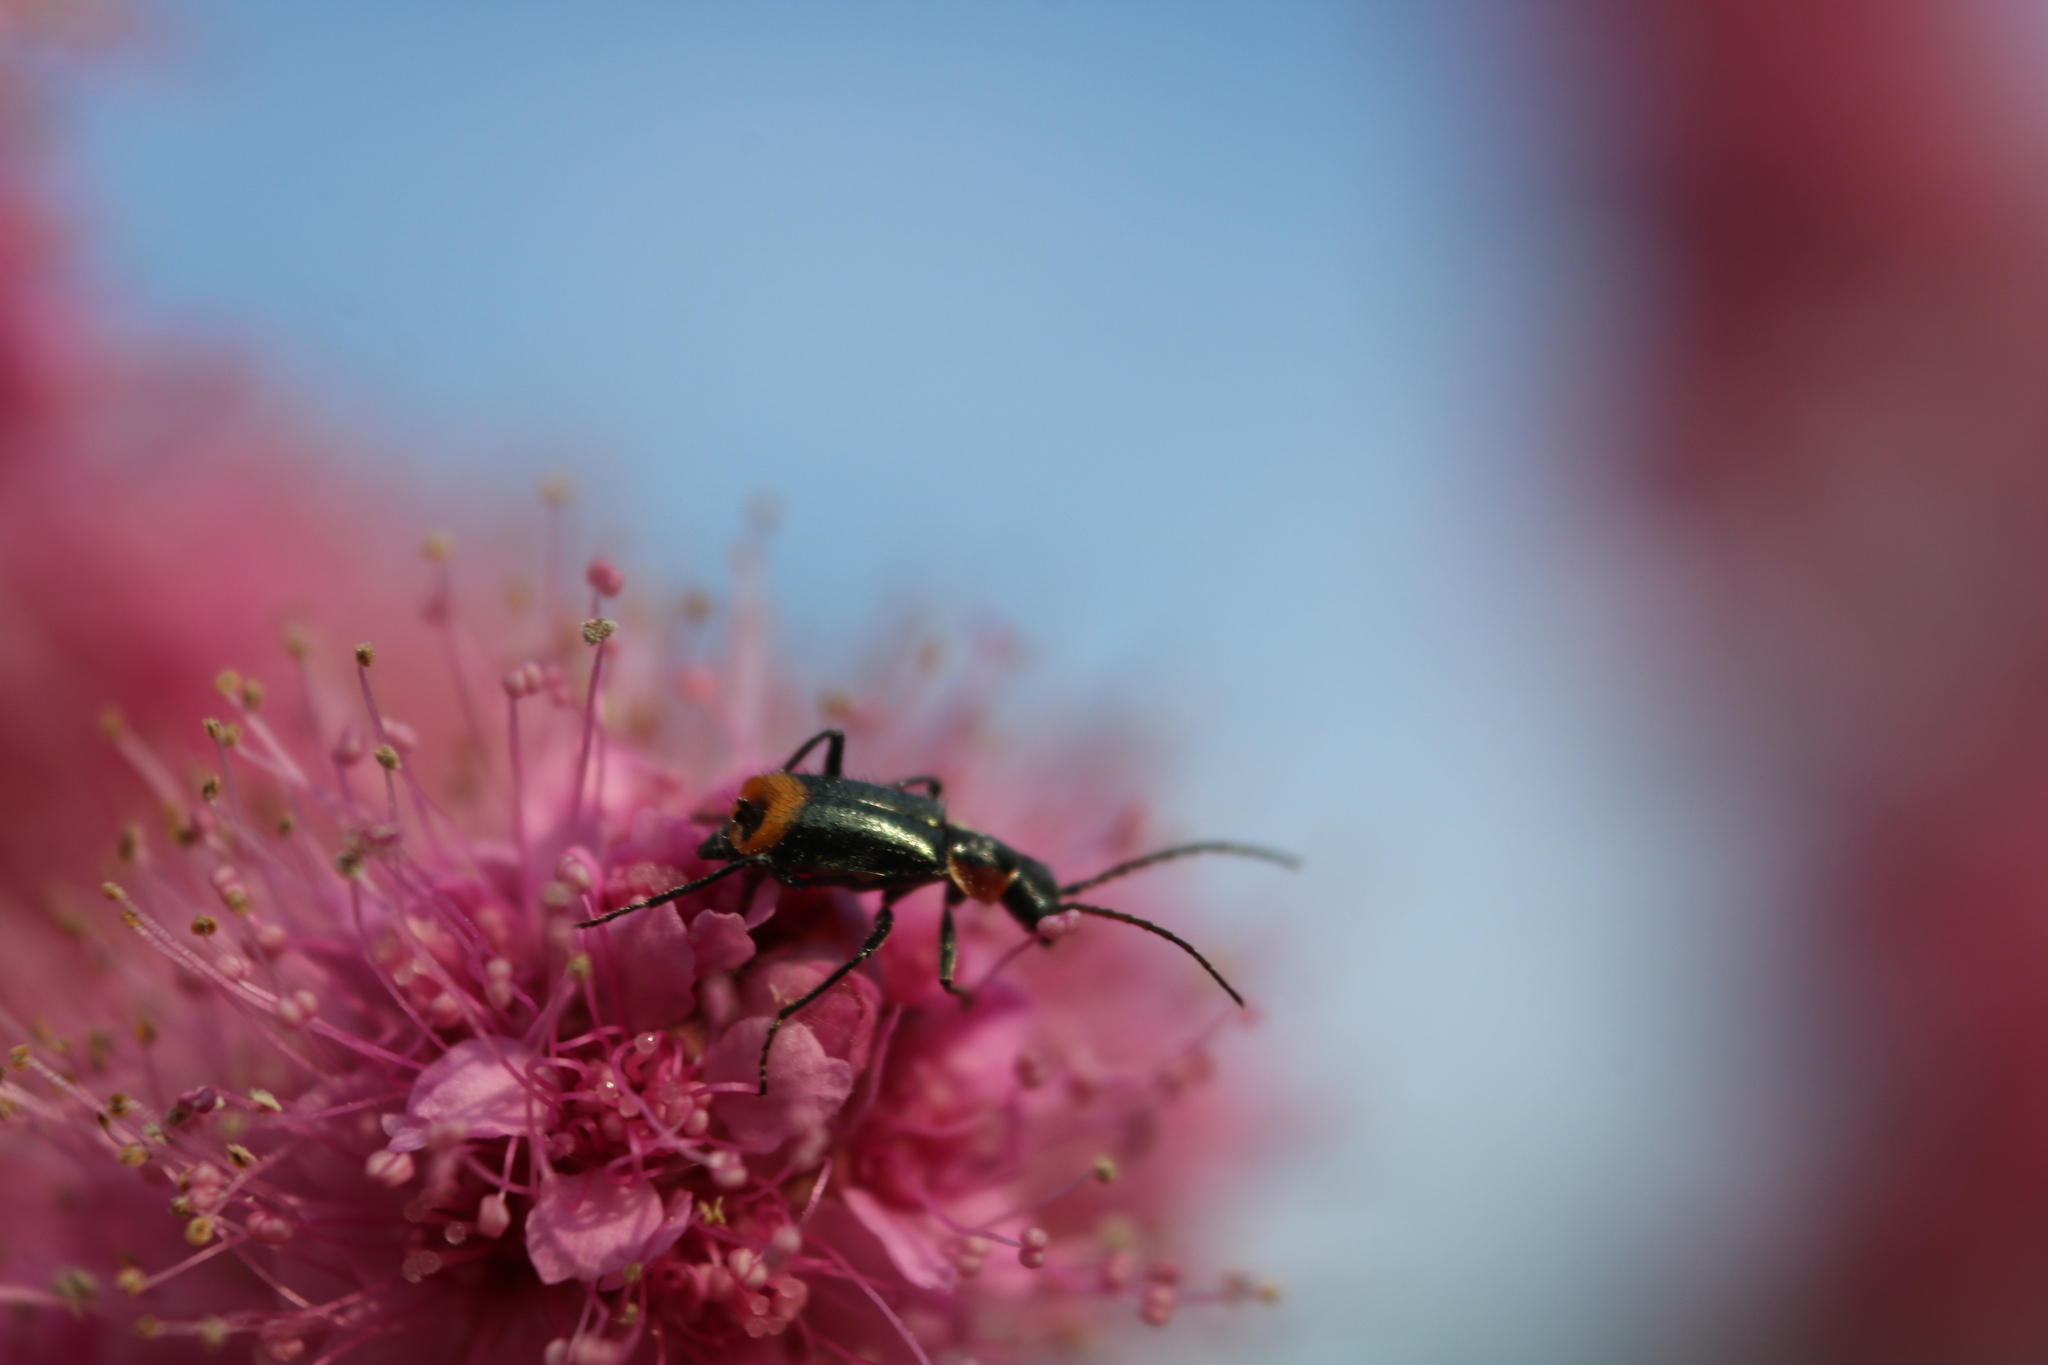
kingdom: Animalia
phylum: Arthropoda
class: Insecta
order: Coleoptera
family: Melyridae
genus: Axinotarsus
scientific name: Axinotarsus pulicarius
